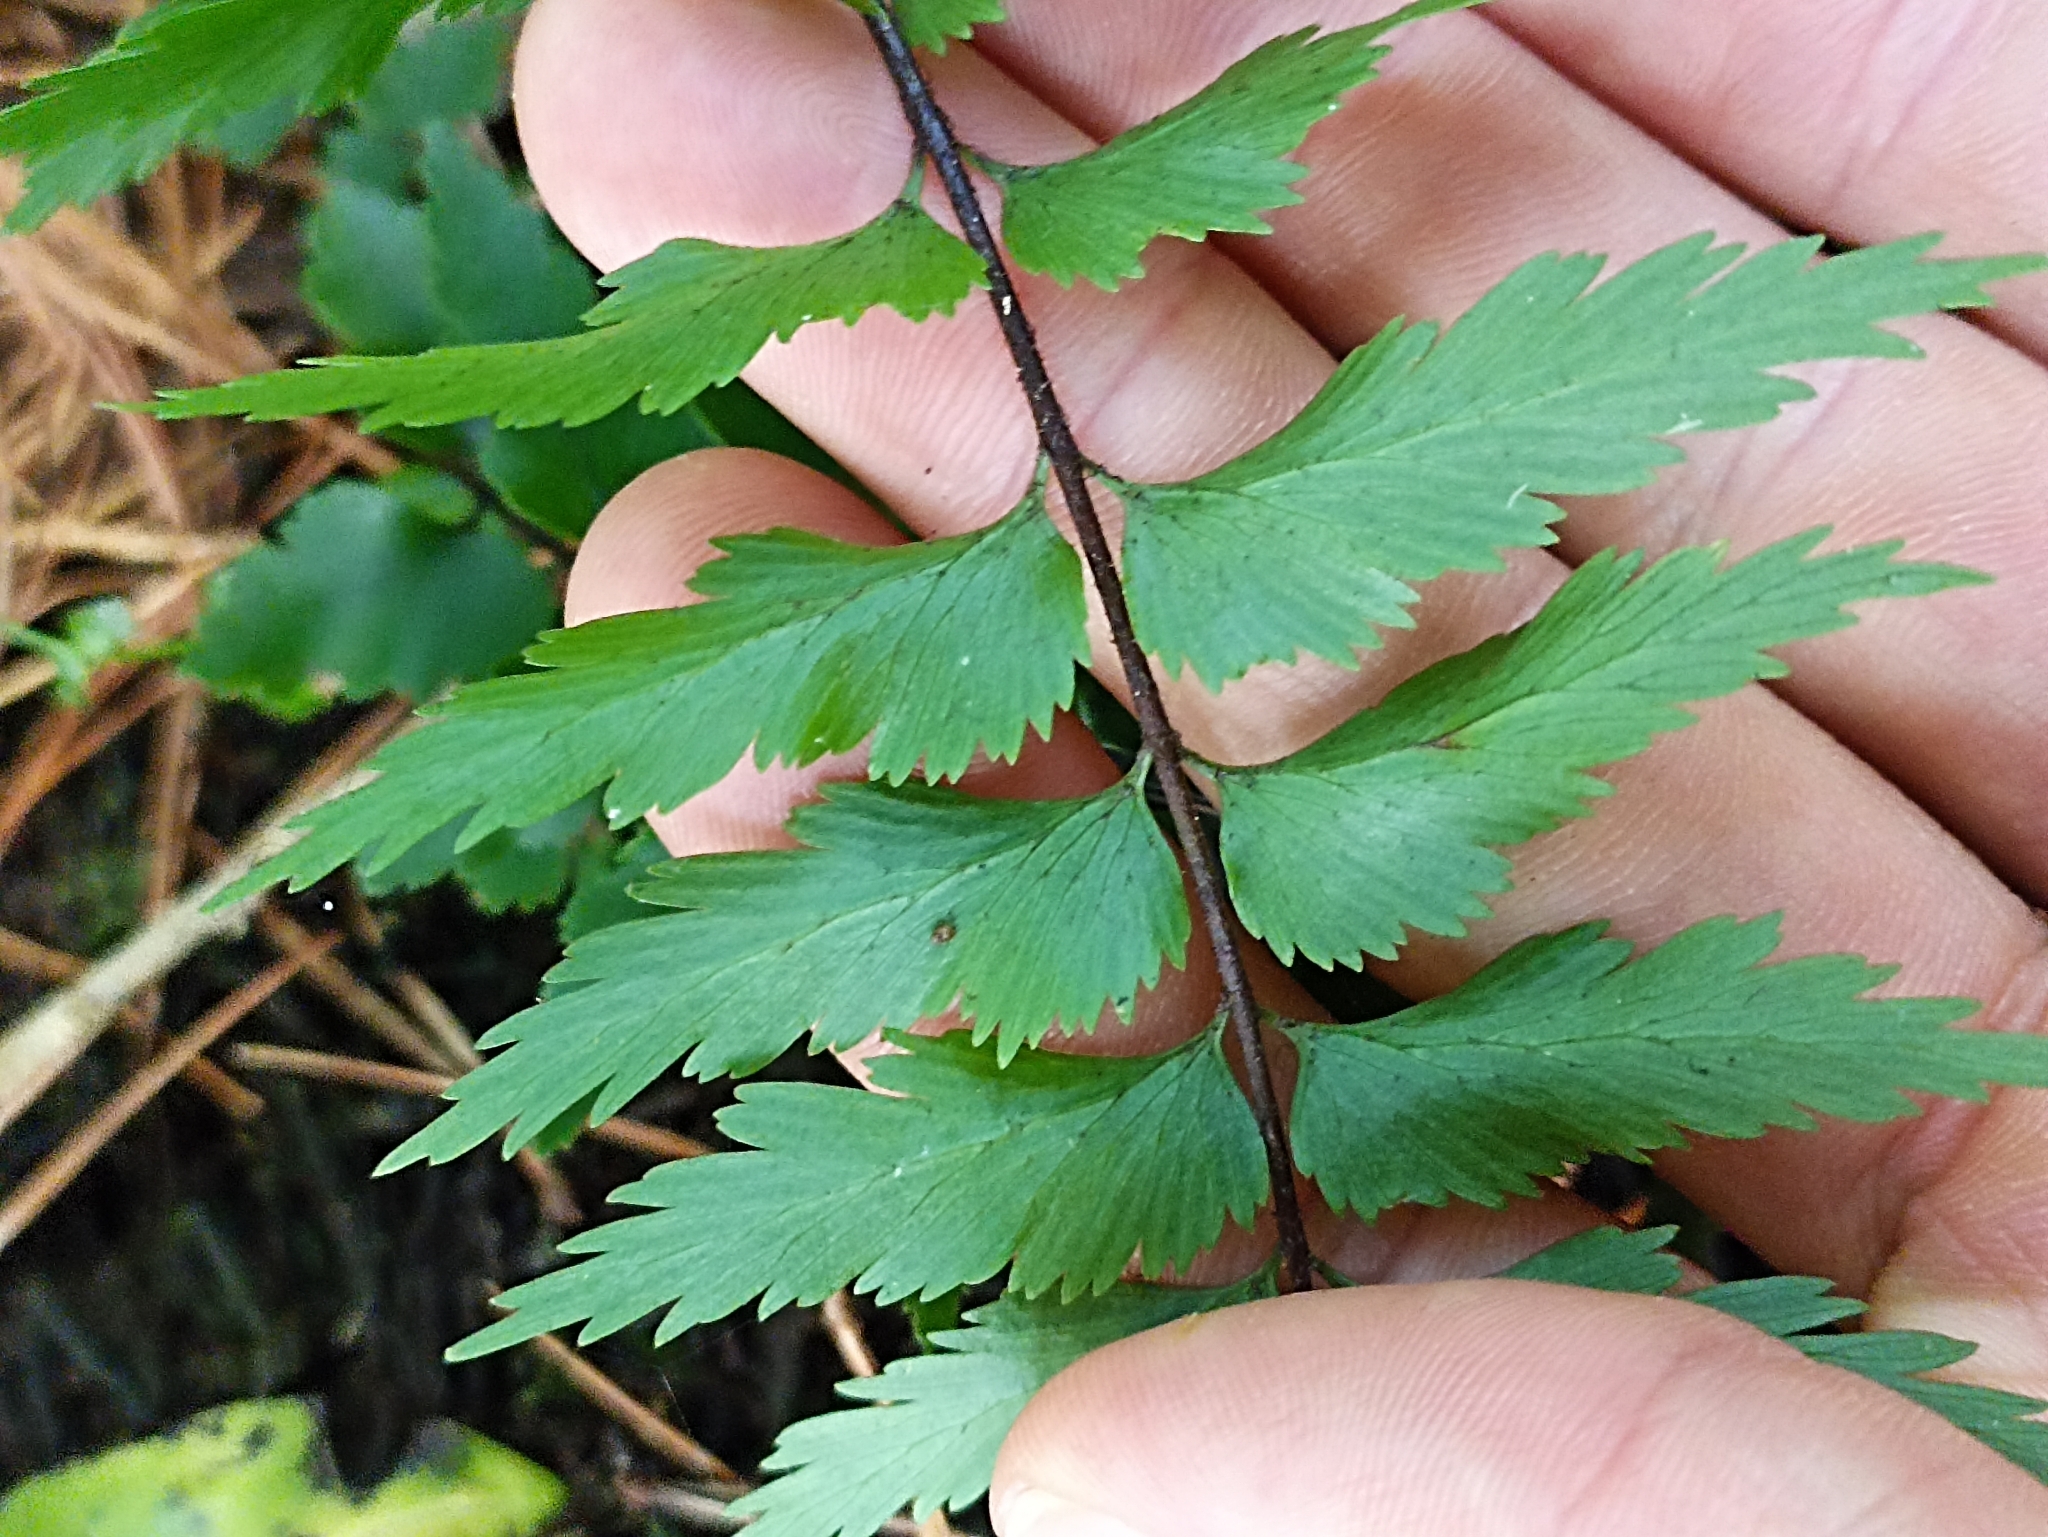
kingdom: Plantae
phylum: Tracheophyta
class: Polypodiopsida
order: Polypodiales
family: Aspleniaceae
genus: Asplenium
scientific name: Asplenium polyodon
